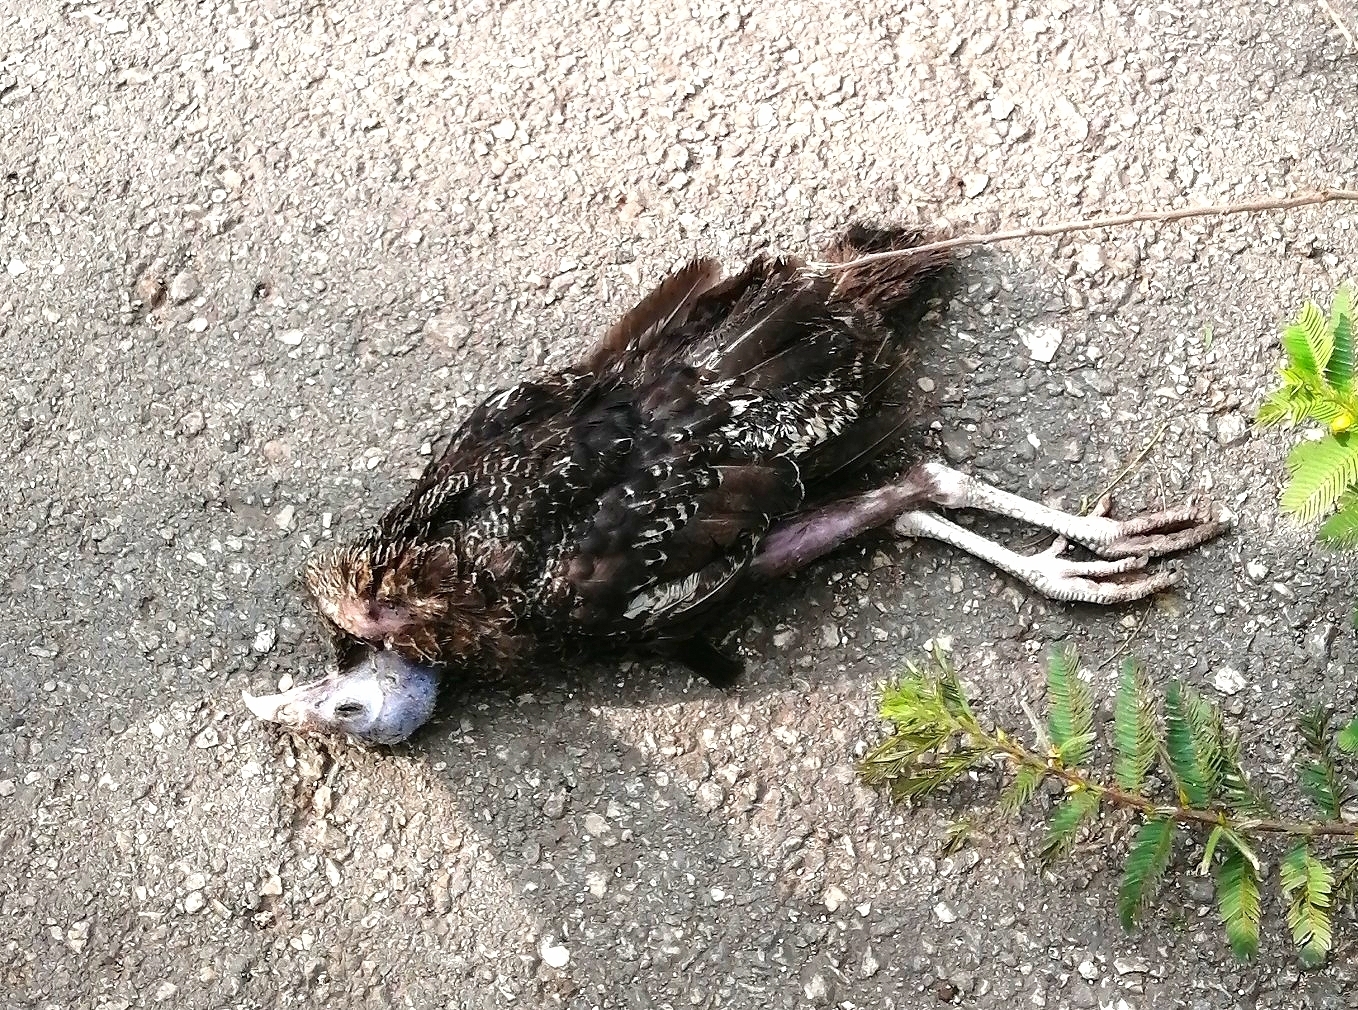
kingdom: Animalia
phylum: Chordata
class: Aves
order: Galliformes
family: Phasianidae
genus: Meleagris
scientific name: Meleagris ocellata
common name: Ocellated turkey
